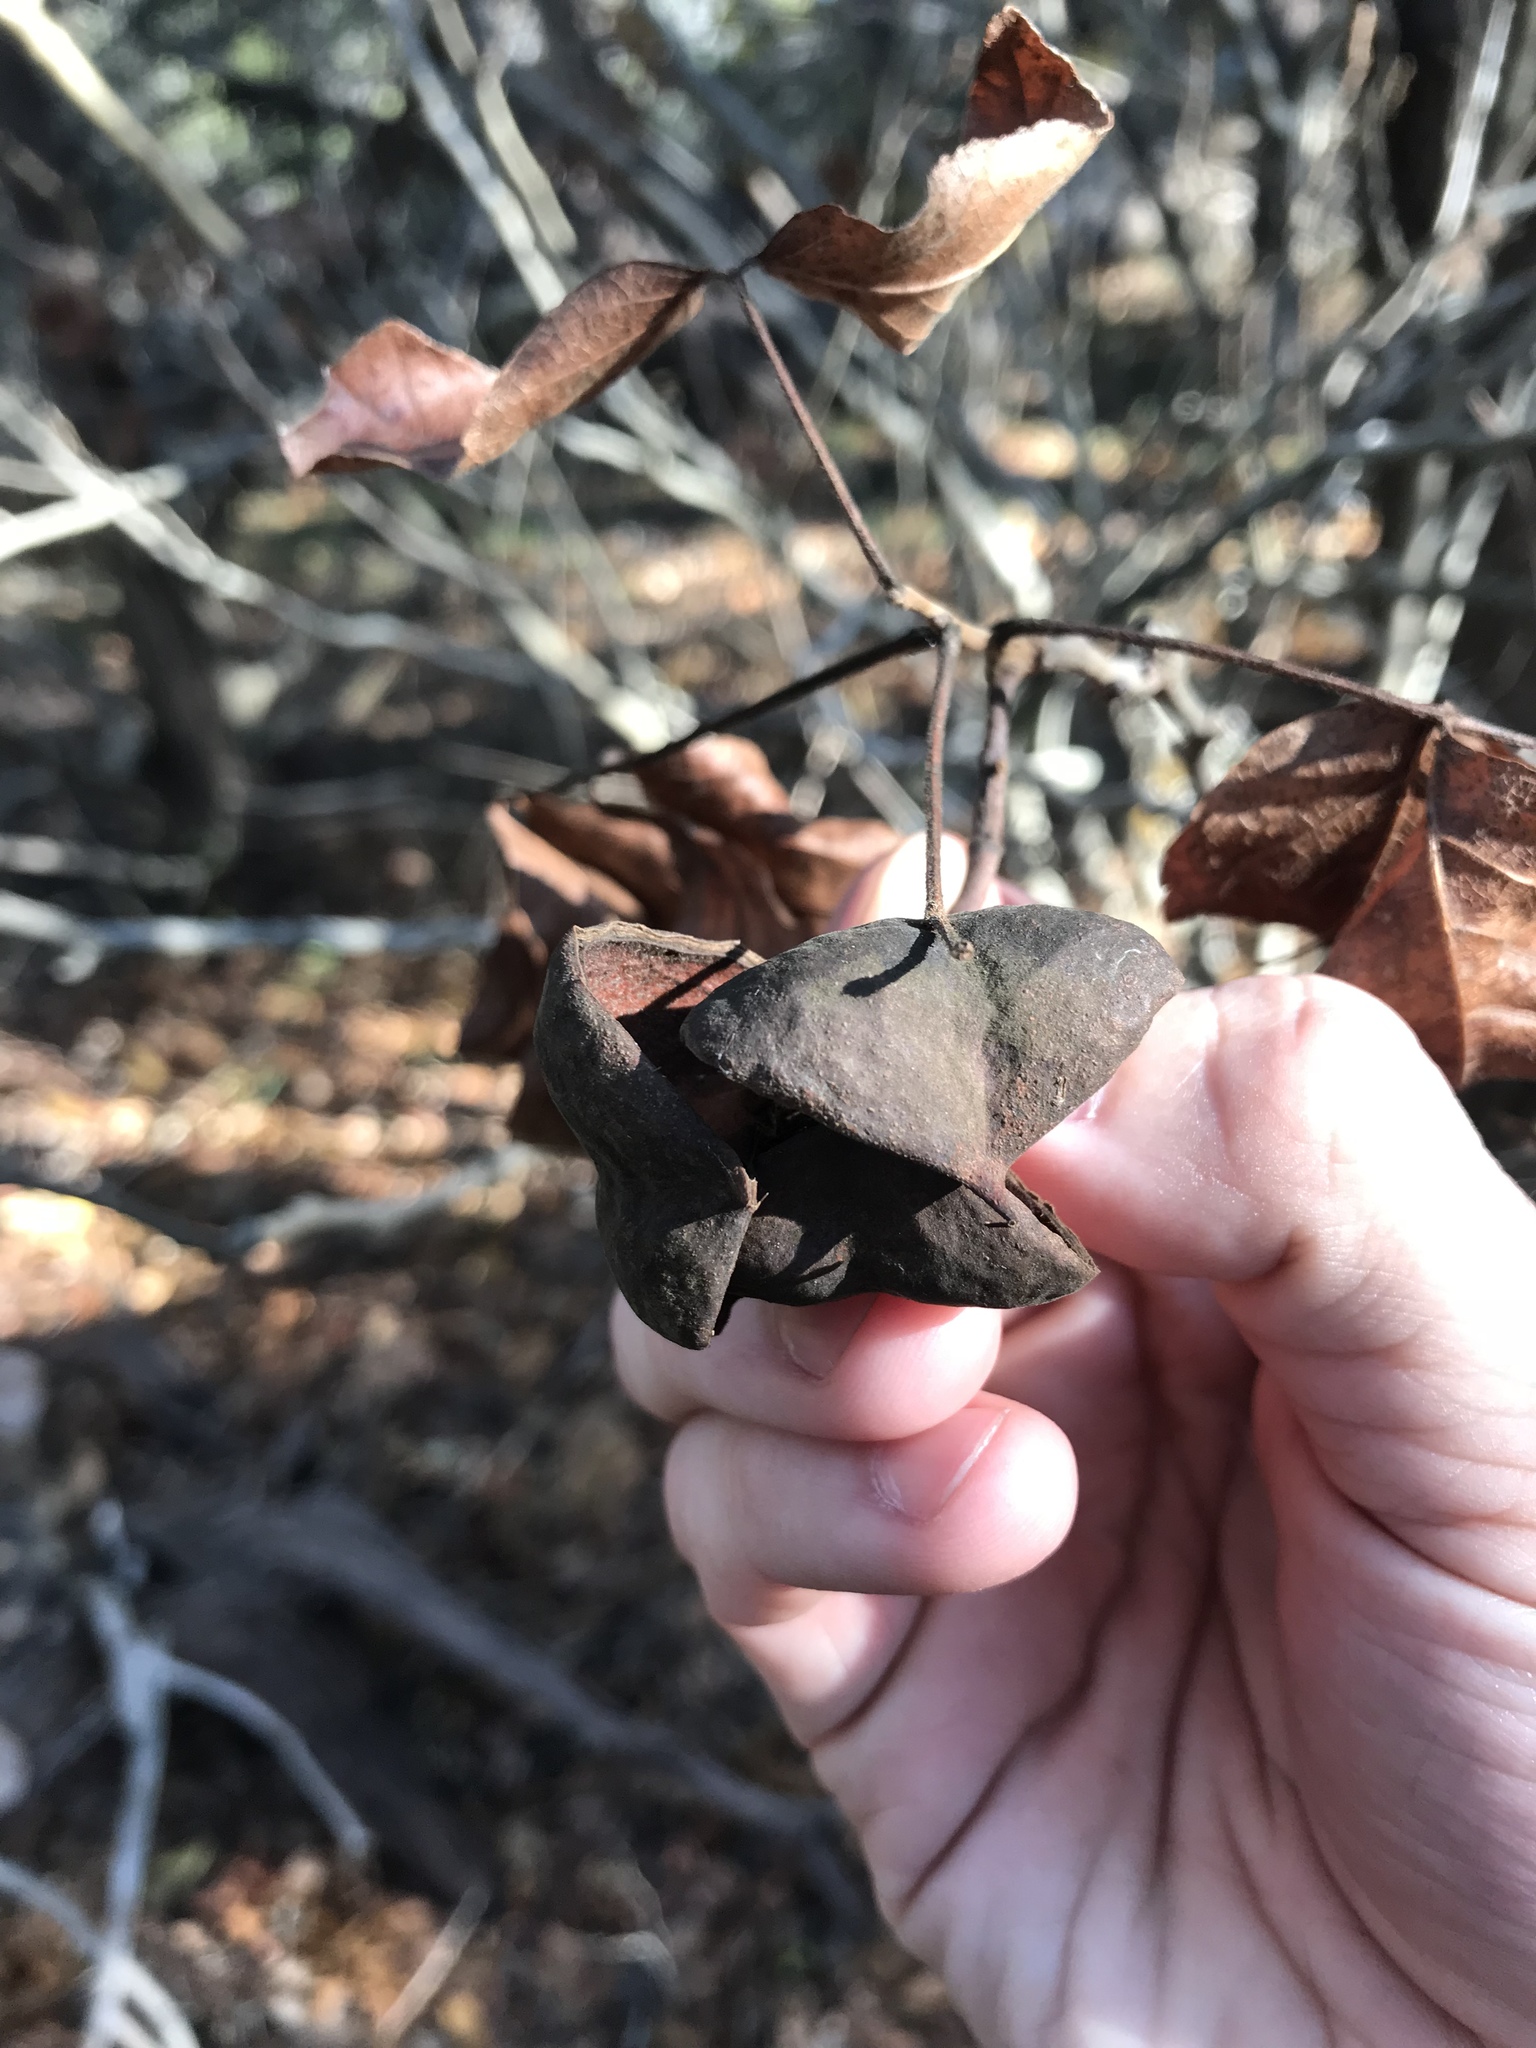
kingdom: Plantae
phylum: Tracheophyta
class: Magnoliopsida
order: Sapindales
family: Sapindaceae
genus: Ungnadia
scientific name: Ungnadia speciosa
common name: Texas-buckeye
